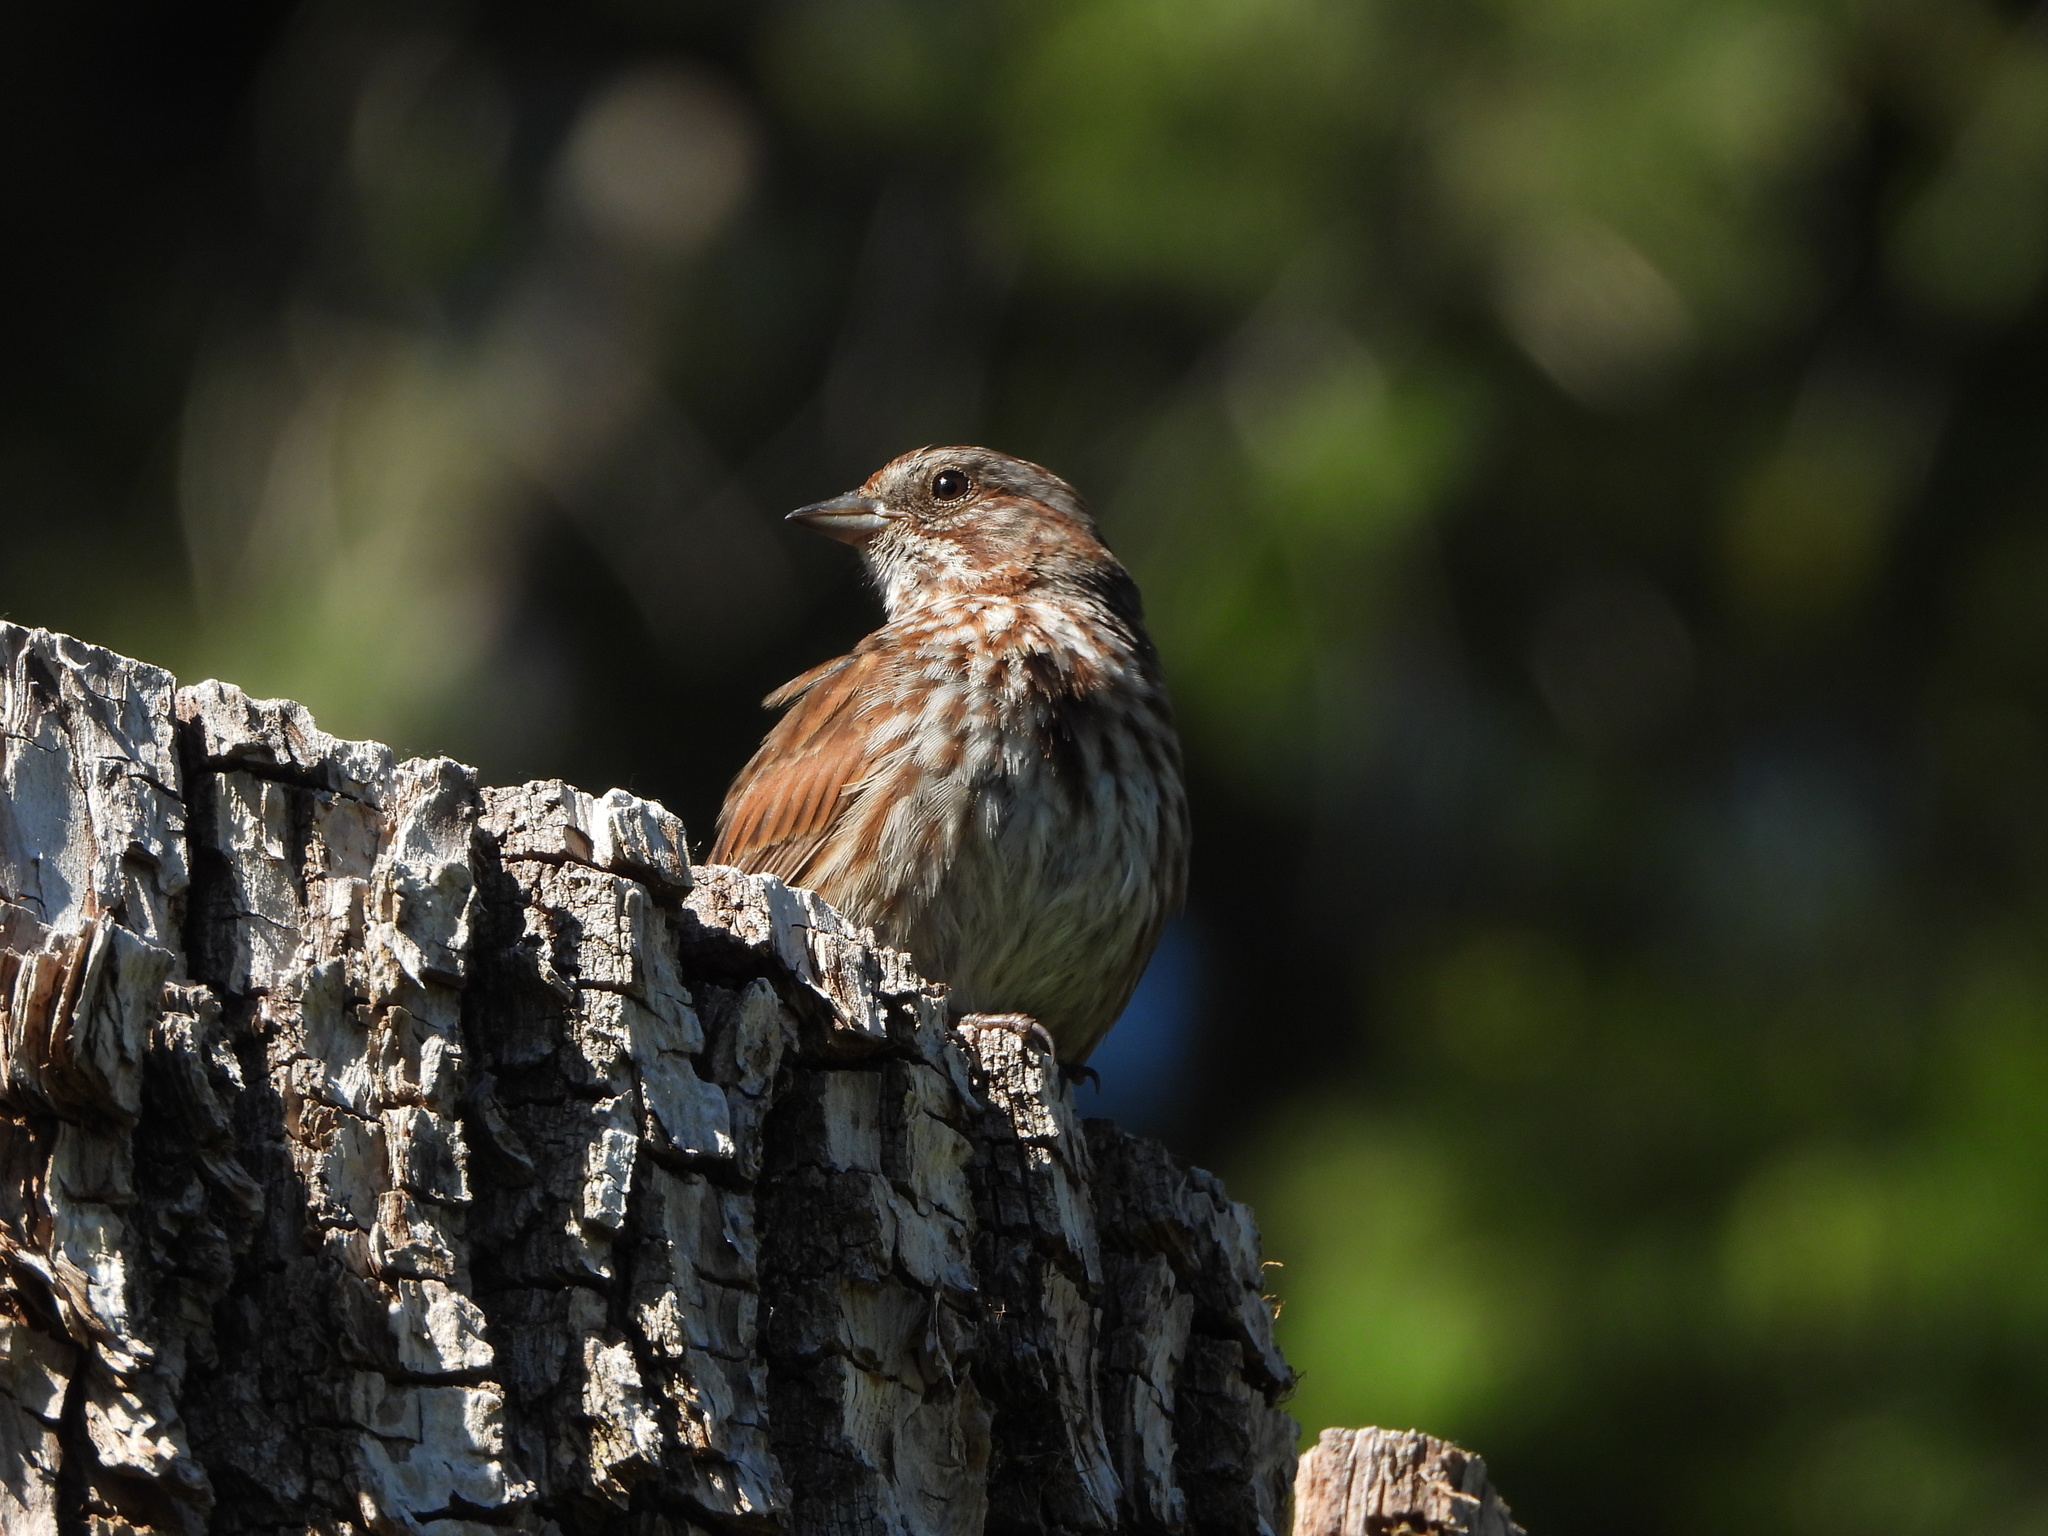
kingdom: Animalia
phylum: Chordata
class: Aves
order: Passeriformes
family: Passerellidae
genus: Melospiza
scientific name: Melospiza melodia
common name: Song sparrow
